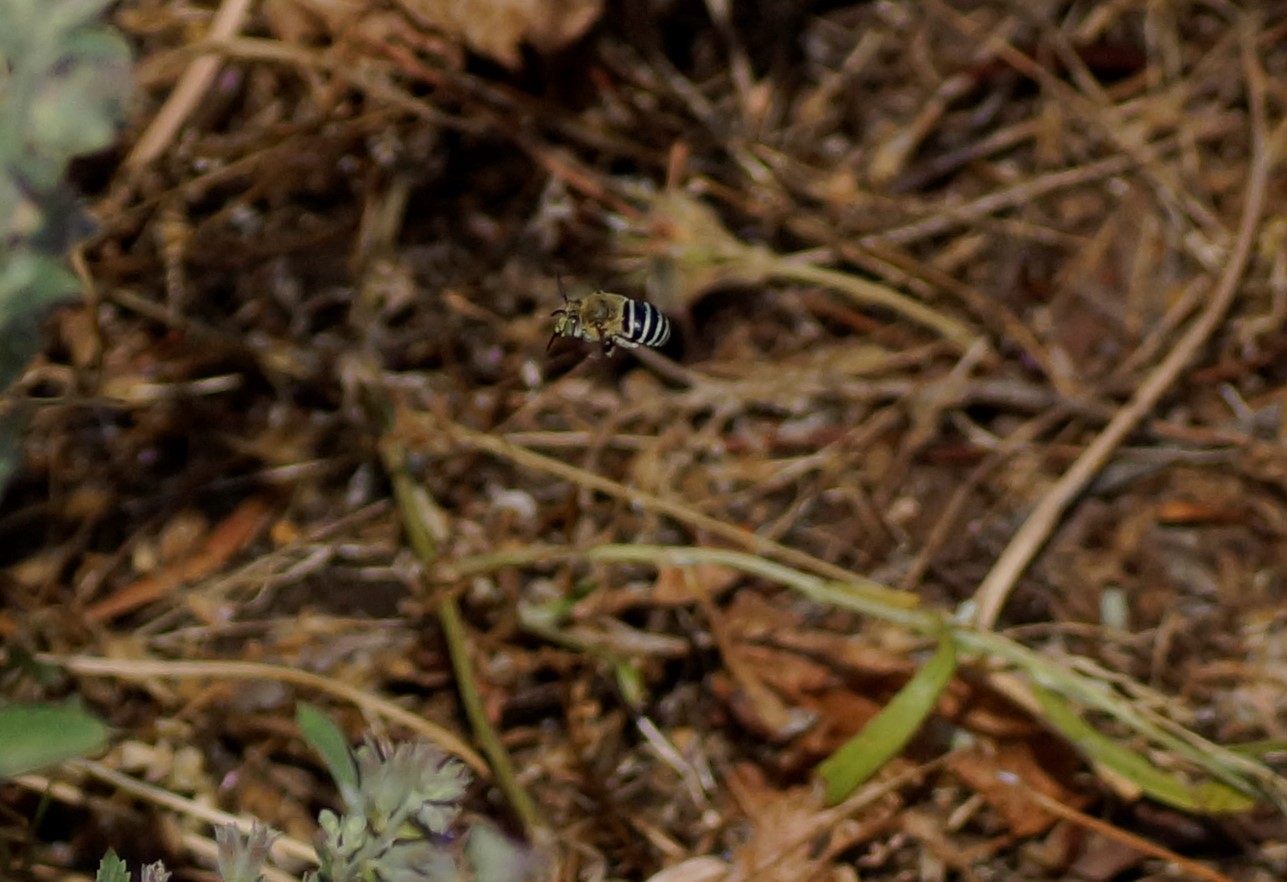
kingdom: Animalia
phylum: Arthropoda
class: Insecta
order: Hymenoptera
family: Apidae
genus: Amegilla
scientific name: Amegilla
